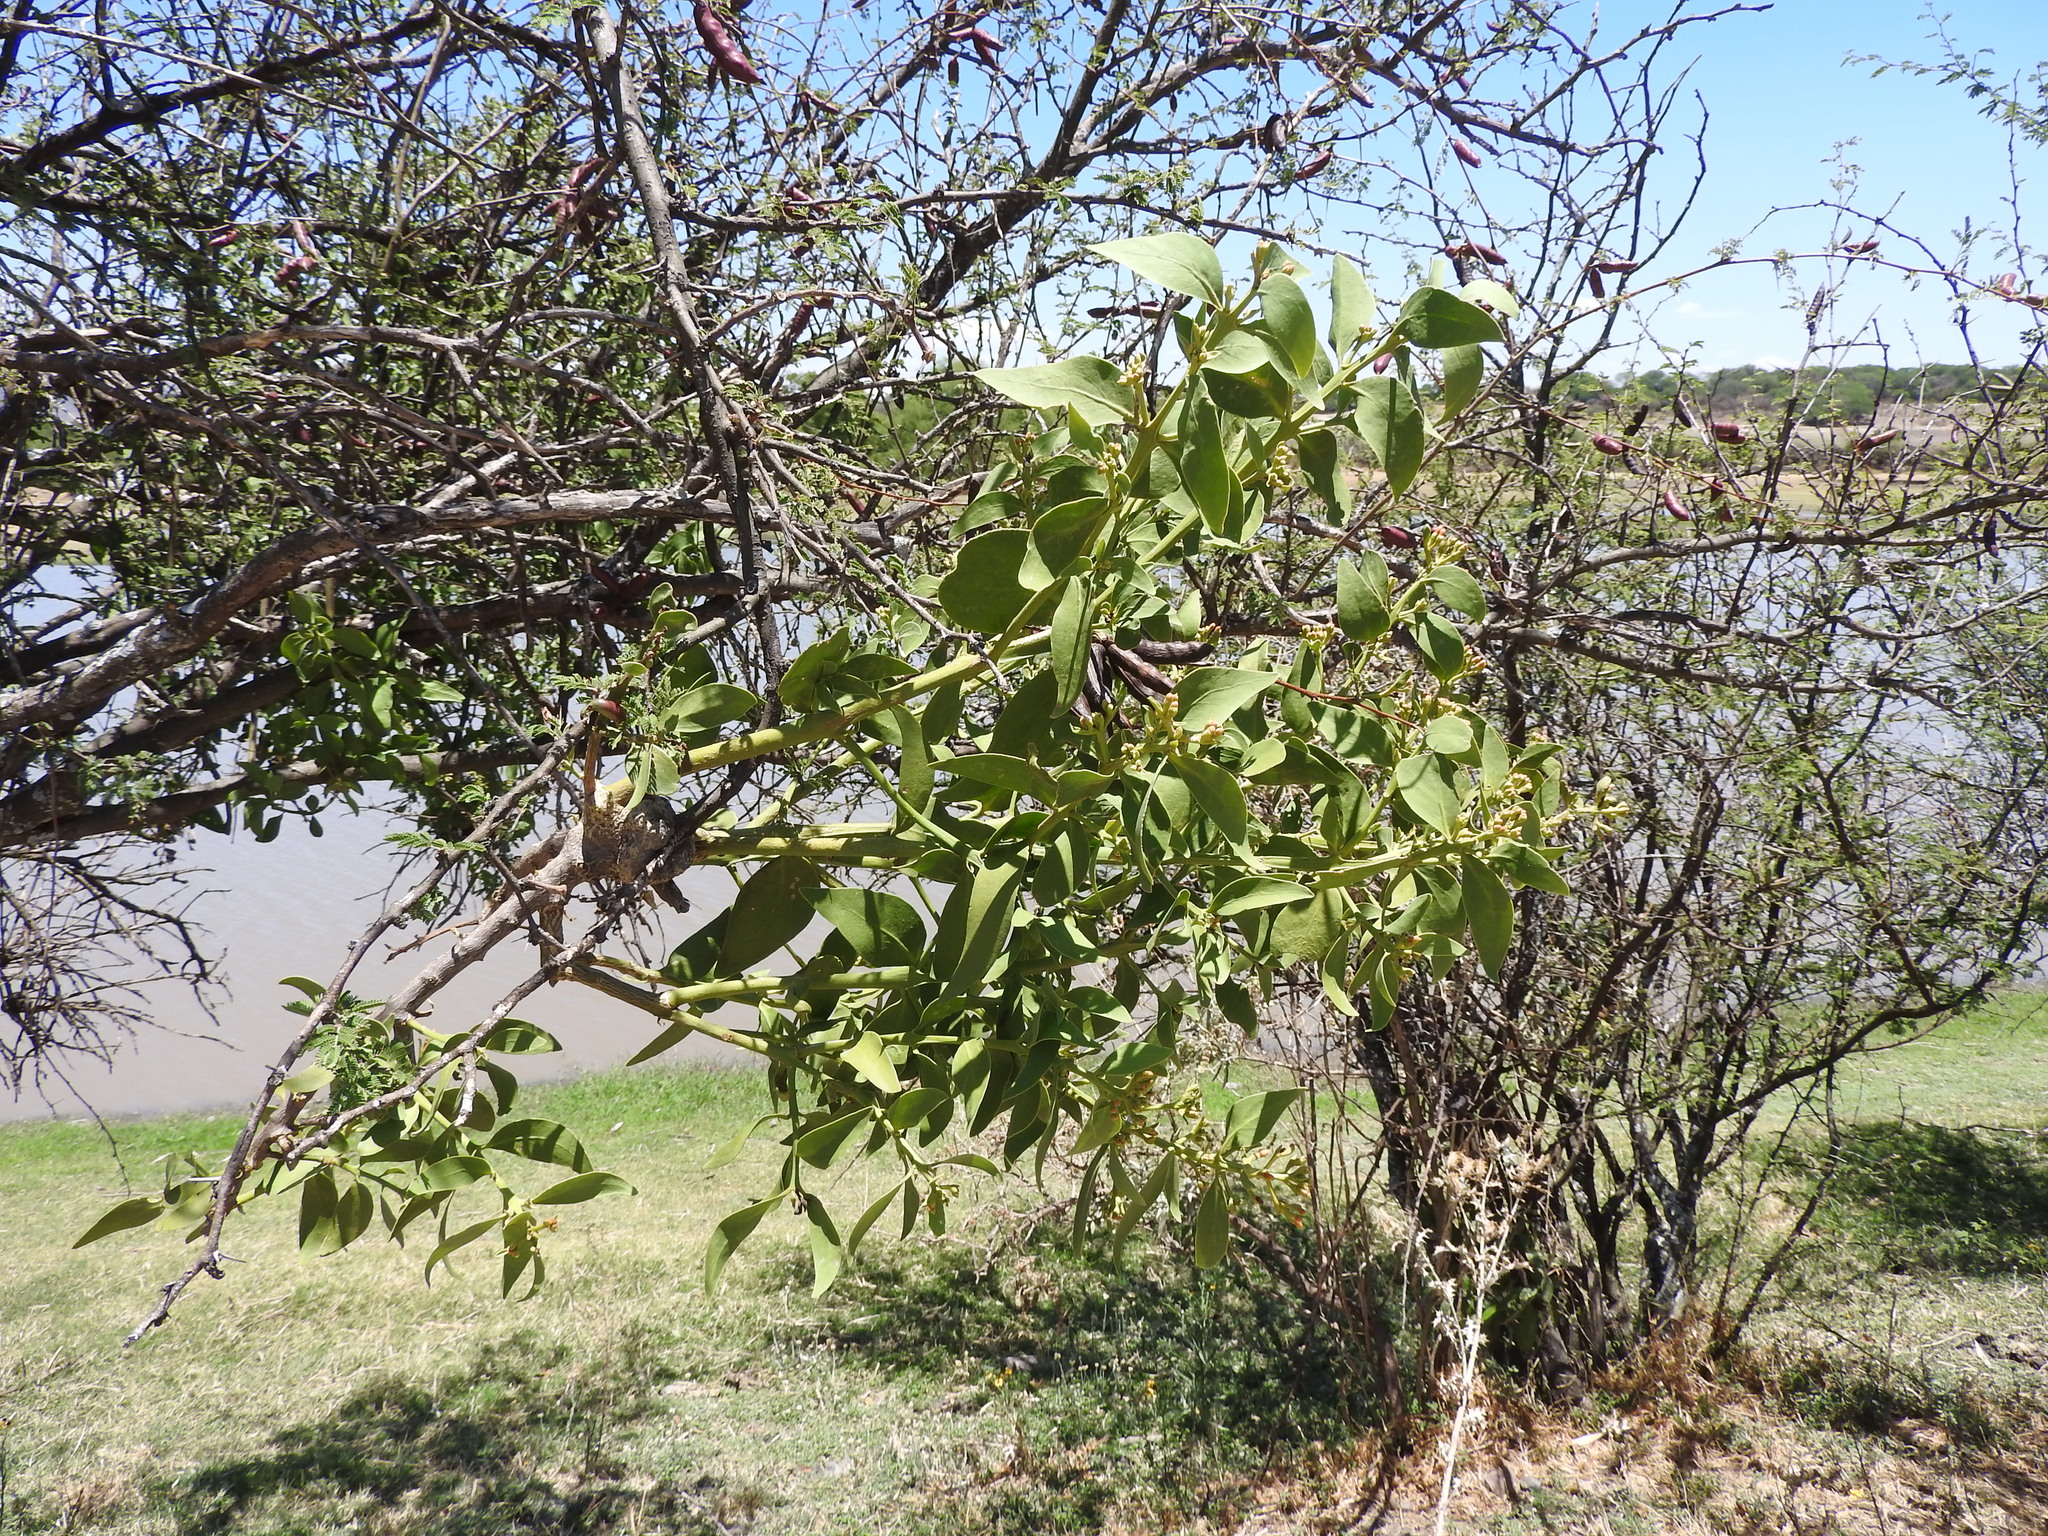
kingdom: Plantae
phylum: Tracheophyta
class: Magnoliopsida
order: Santalales
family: Loranthaceae
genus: Psittacanthus
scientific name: Psittacanthus calyculatus
